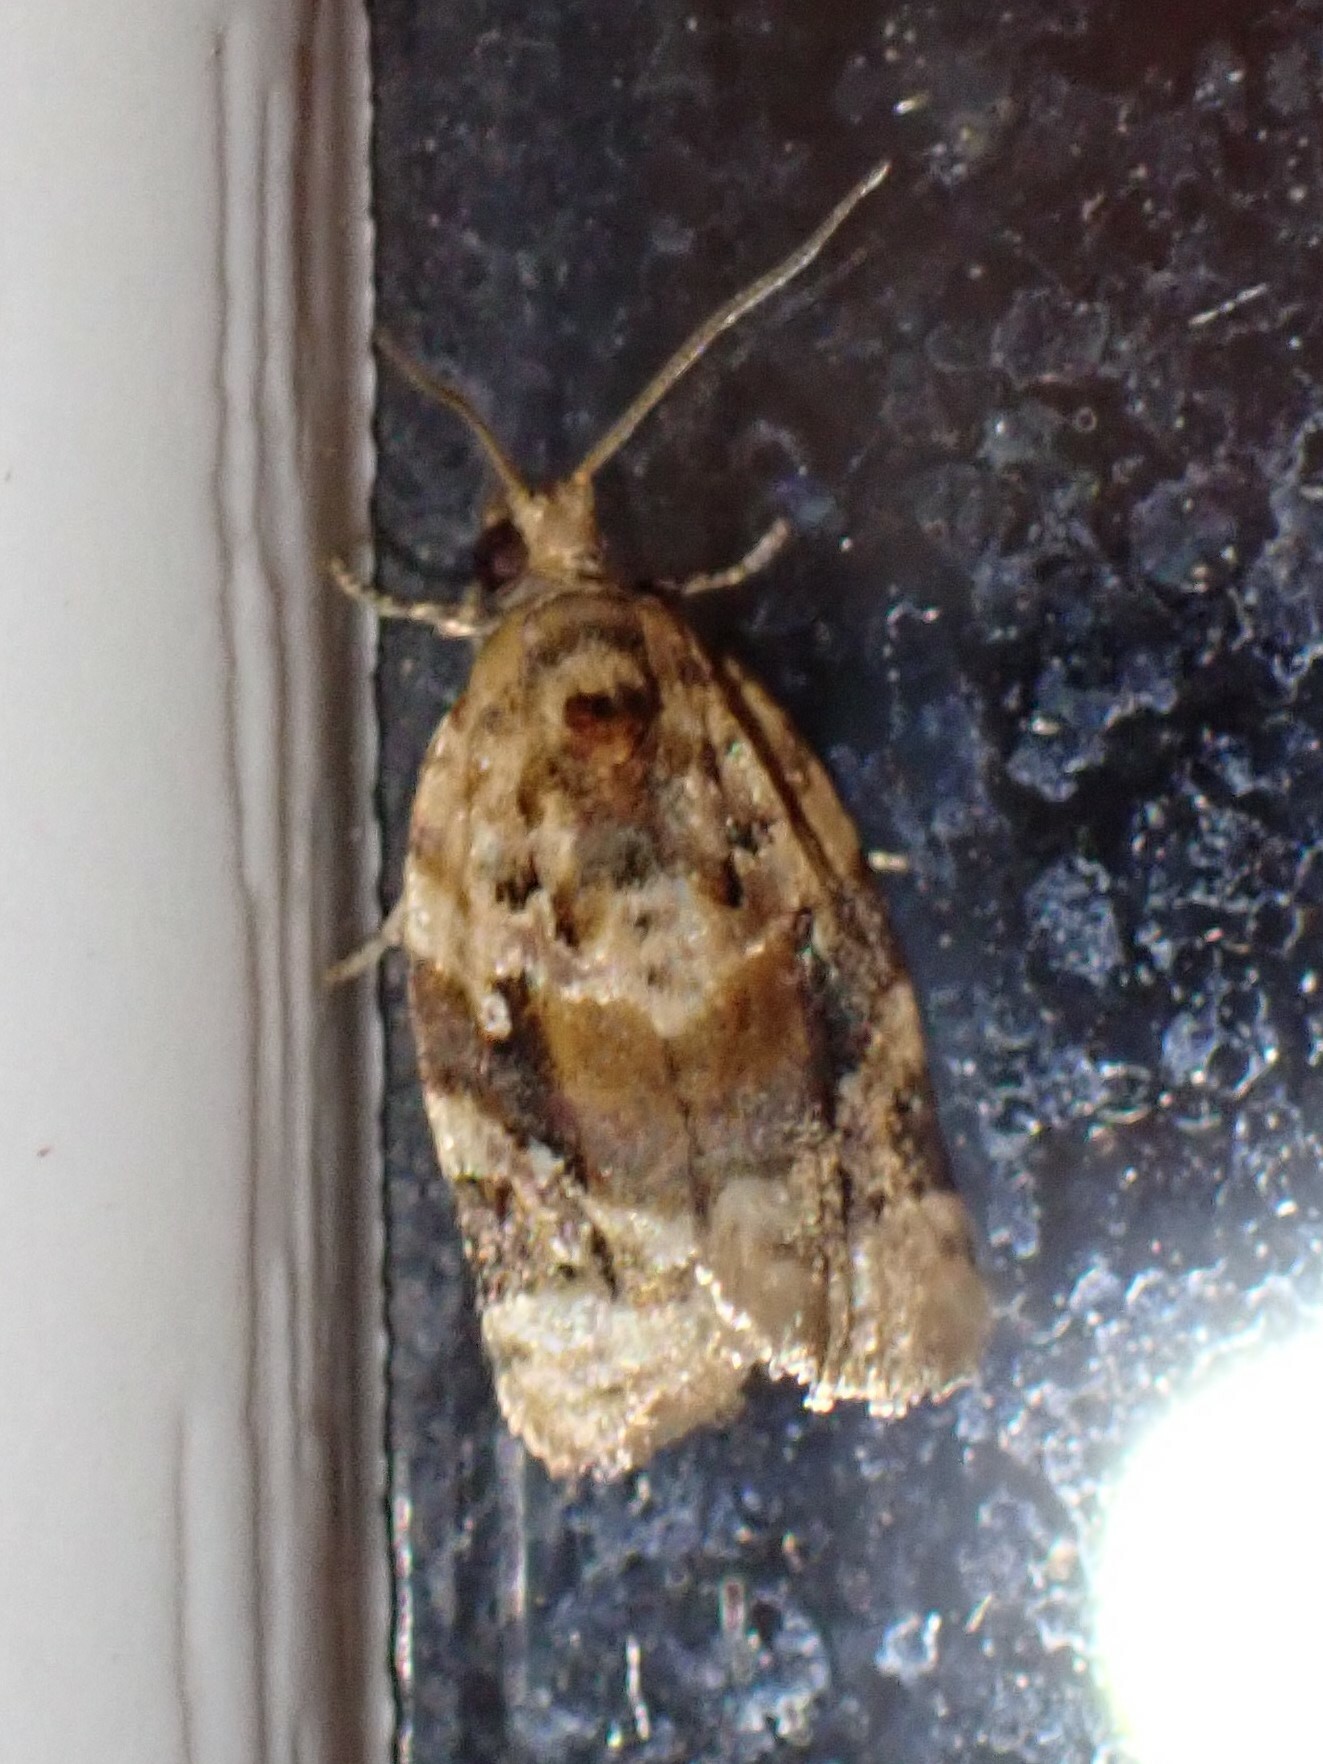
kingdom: Animalia
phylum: Arthropoda
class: Insecta
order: Lepidoptera
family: Tortricidae
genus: Argyrotaenia
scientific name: Argyrotaenia velutinana
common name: Red-banded leafroller moth
